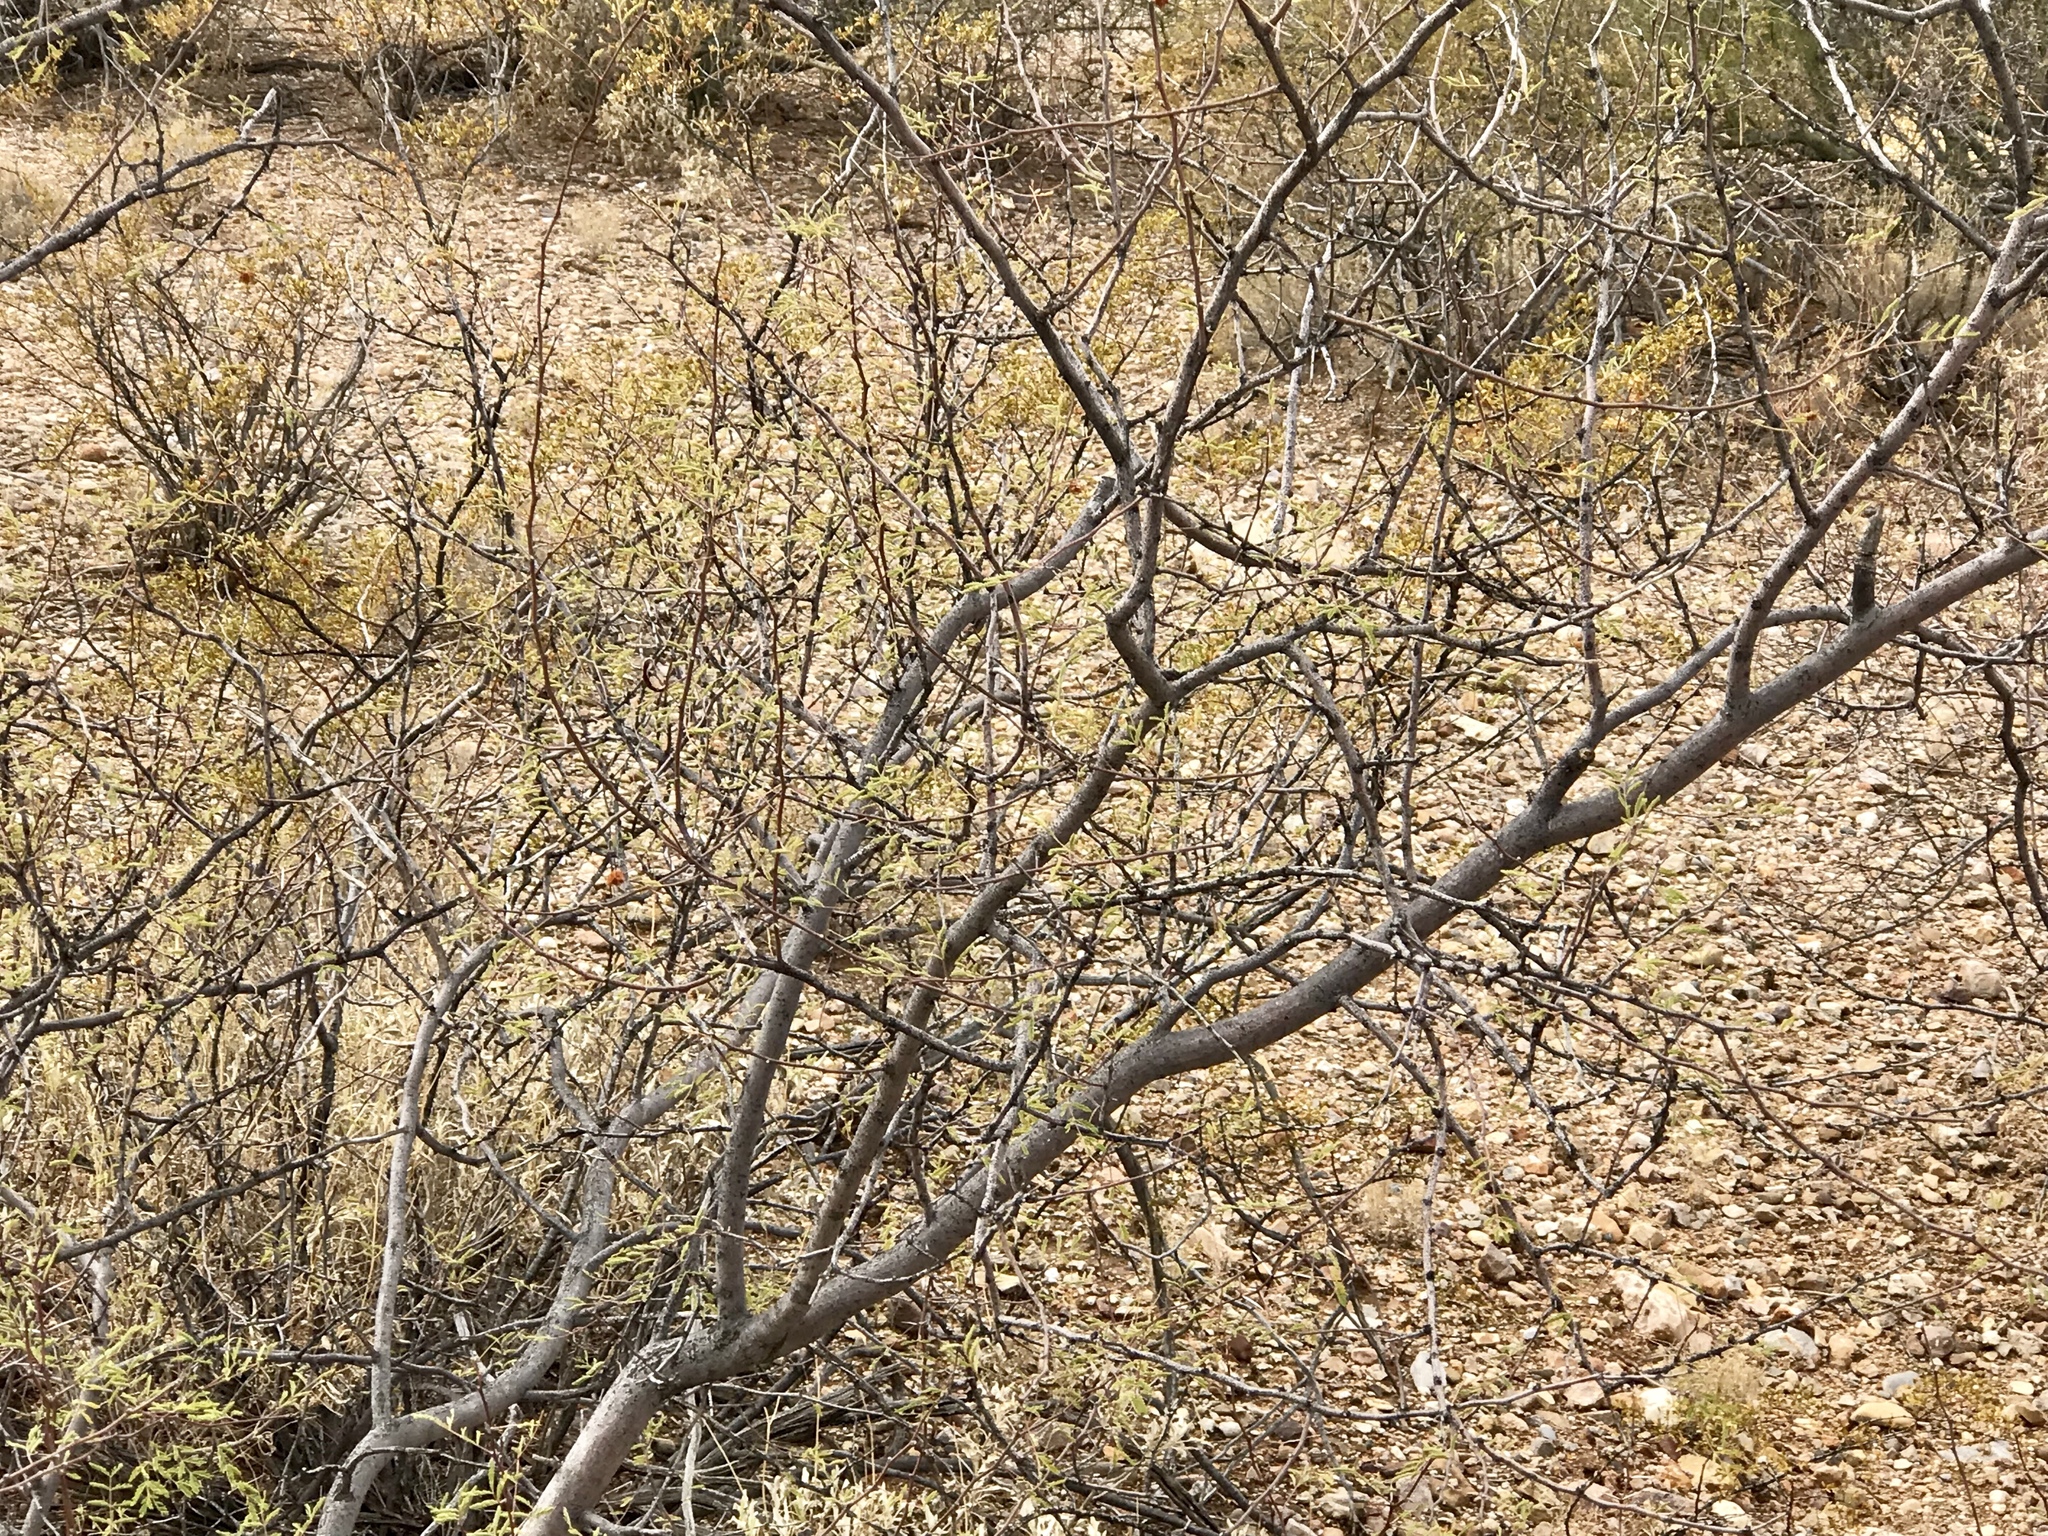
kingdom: Plantae
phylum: Tracheophyta
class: Magnoliopsida
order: Fabales
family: Fabaceae
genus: Vachellia
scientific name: Vachellia constricta
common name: Mescat acacia
